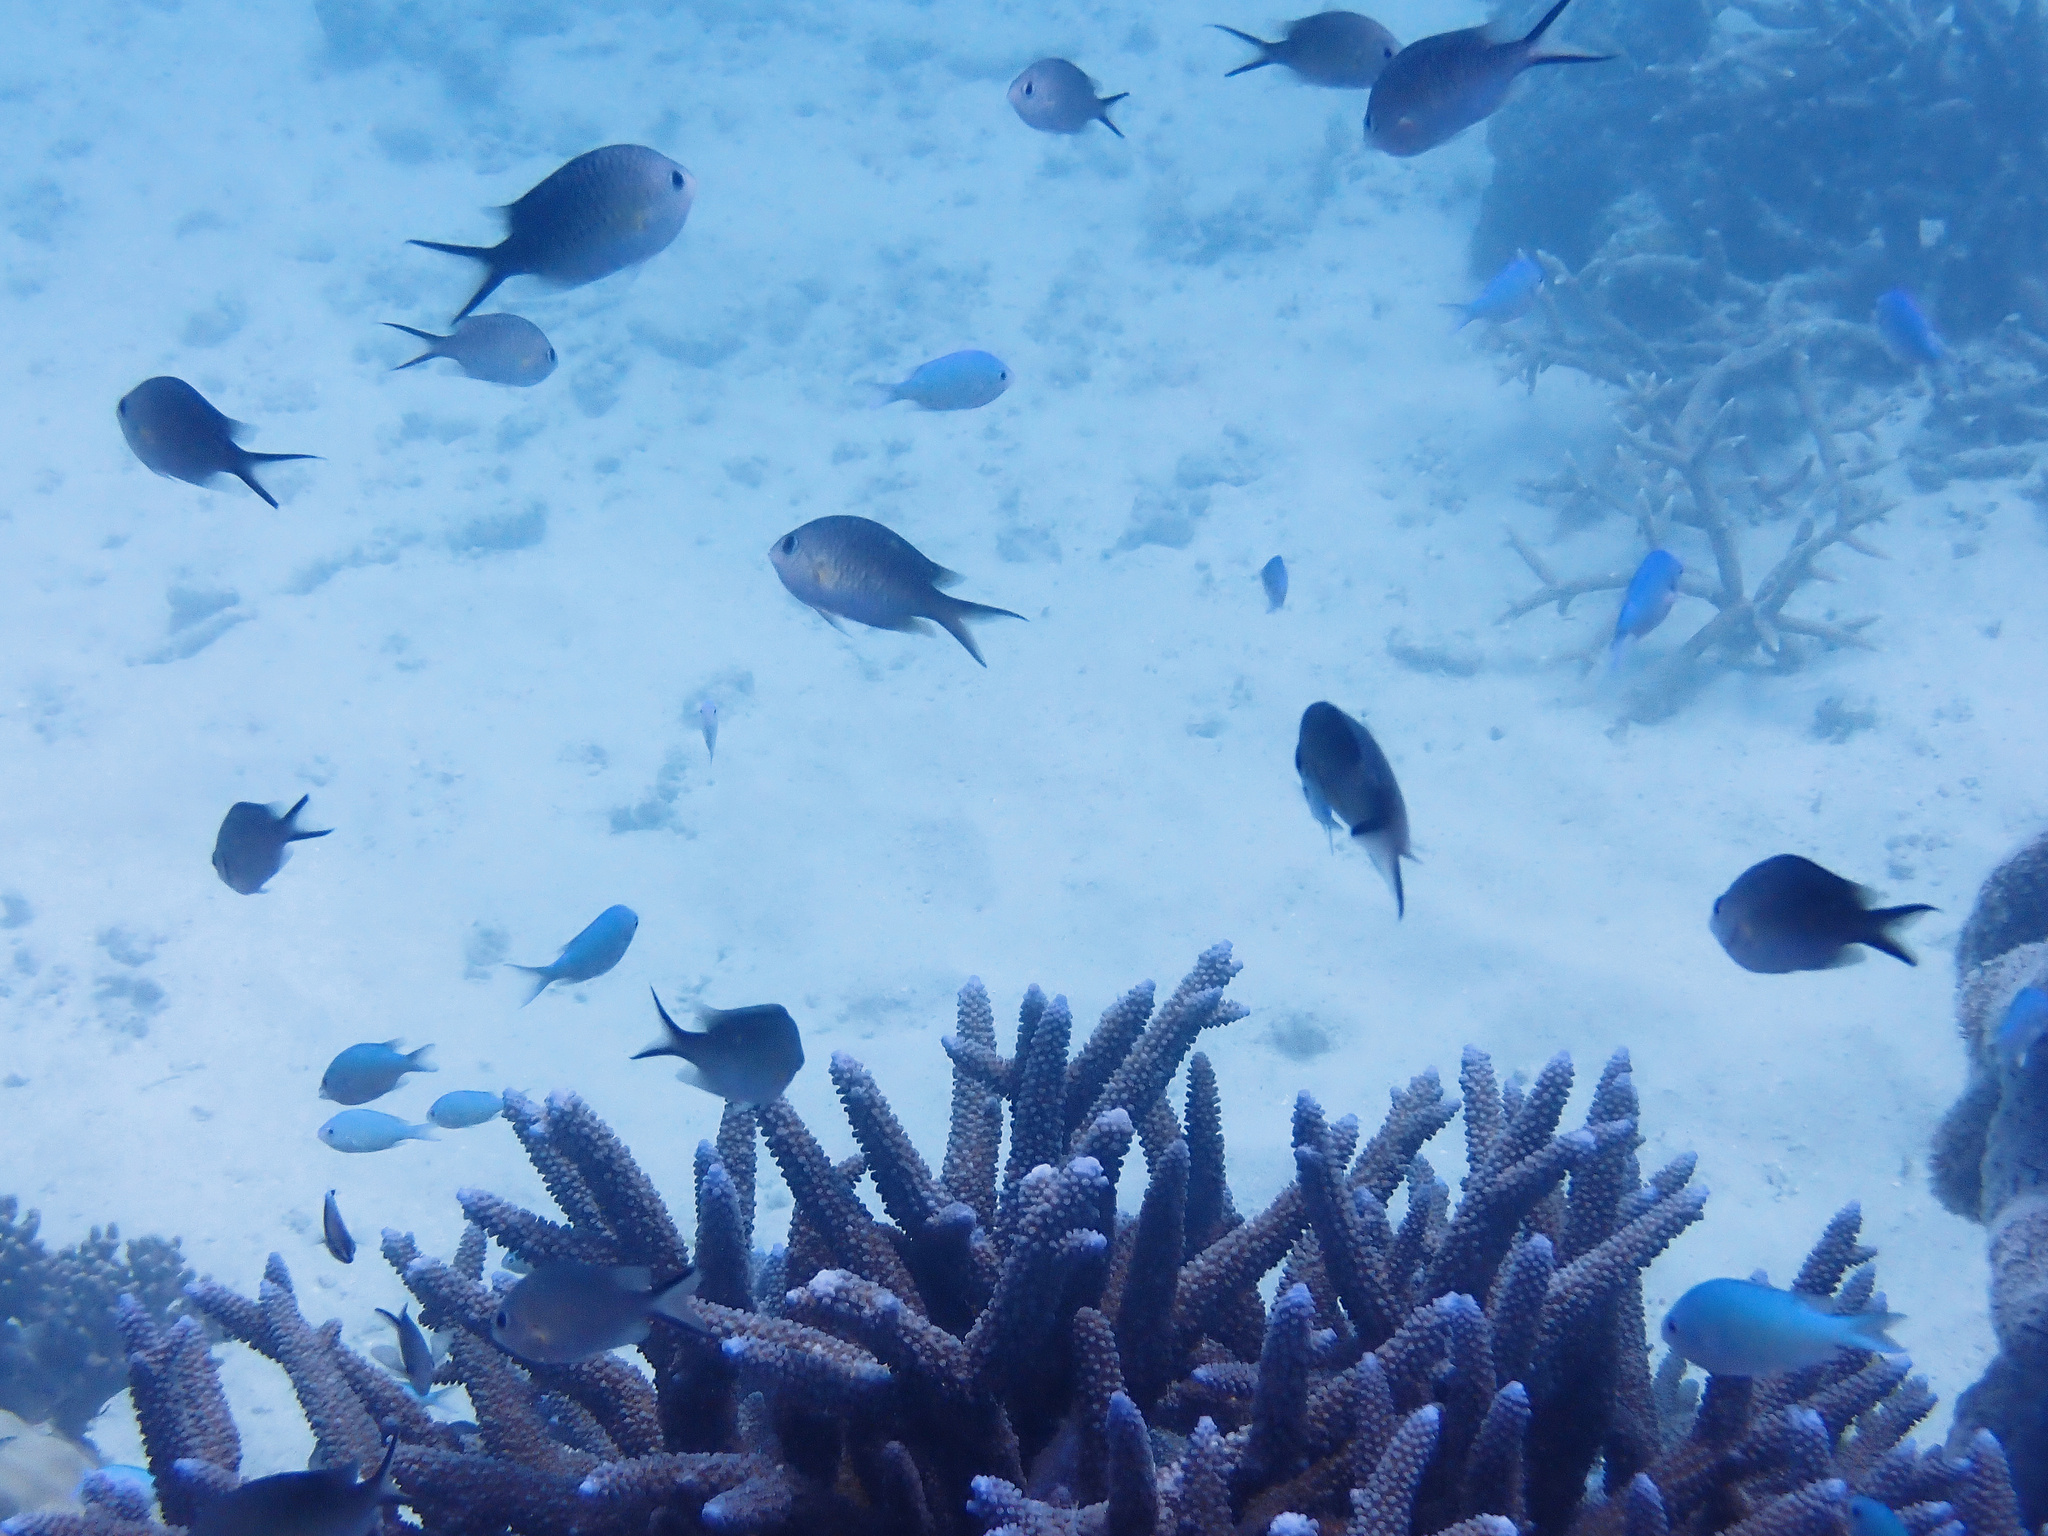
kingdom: Animalia
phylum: Chordata
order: Perciformes
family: Pomacentridae
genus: Chromis
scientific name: Chromis ternatensis
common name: Ternate chromis
